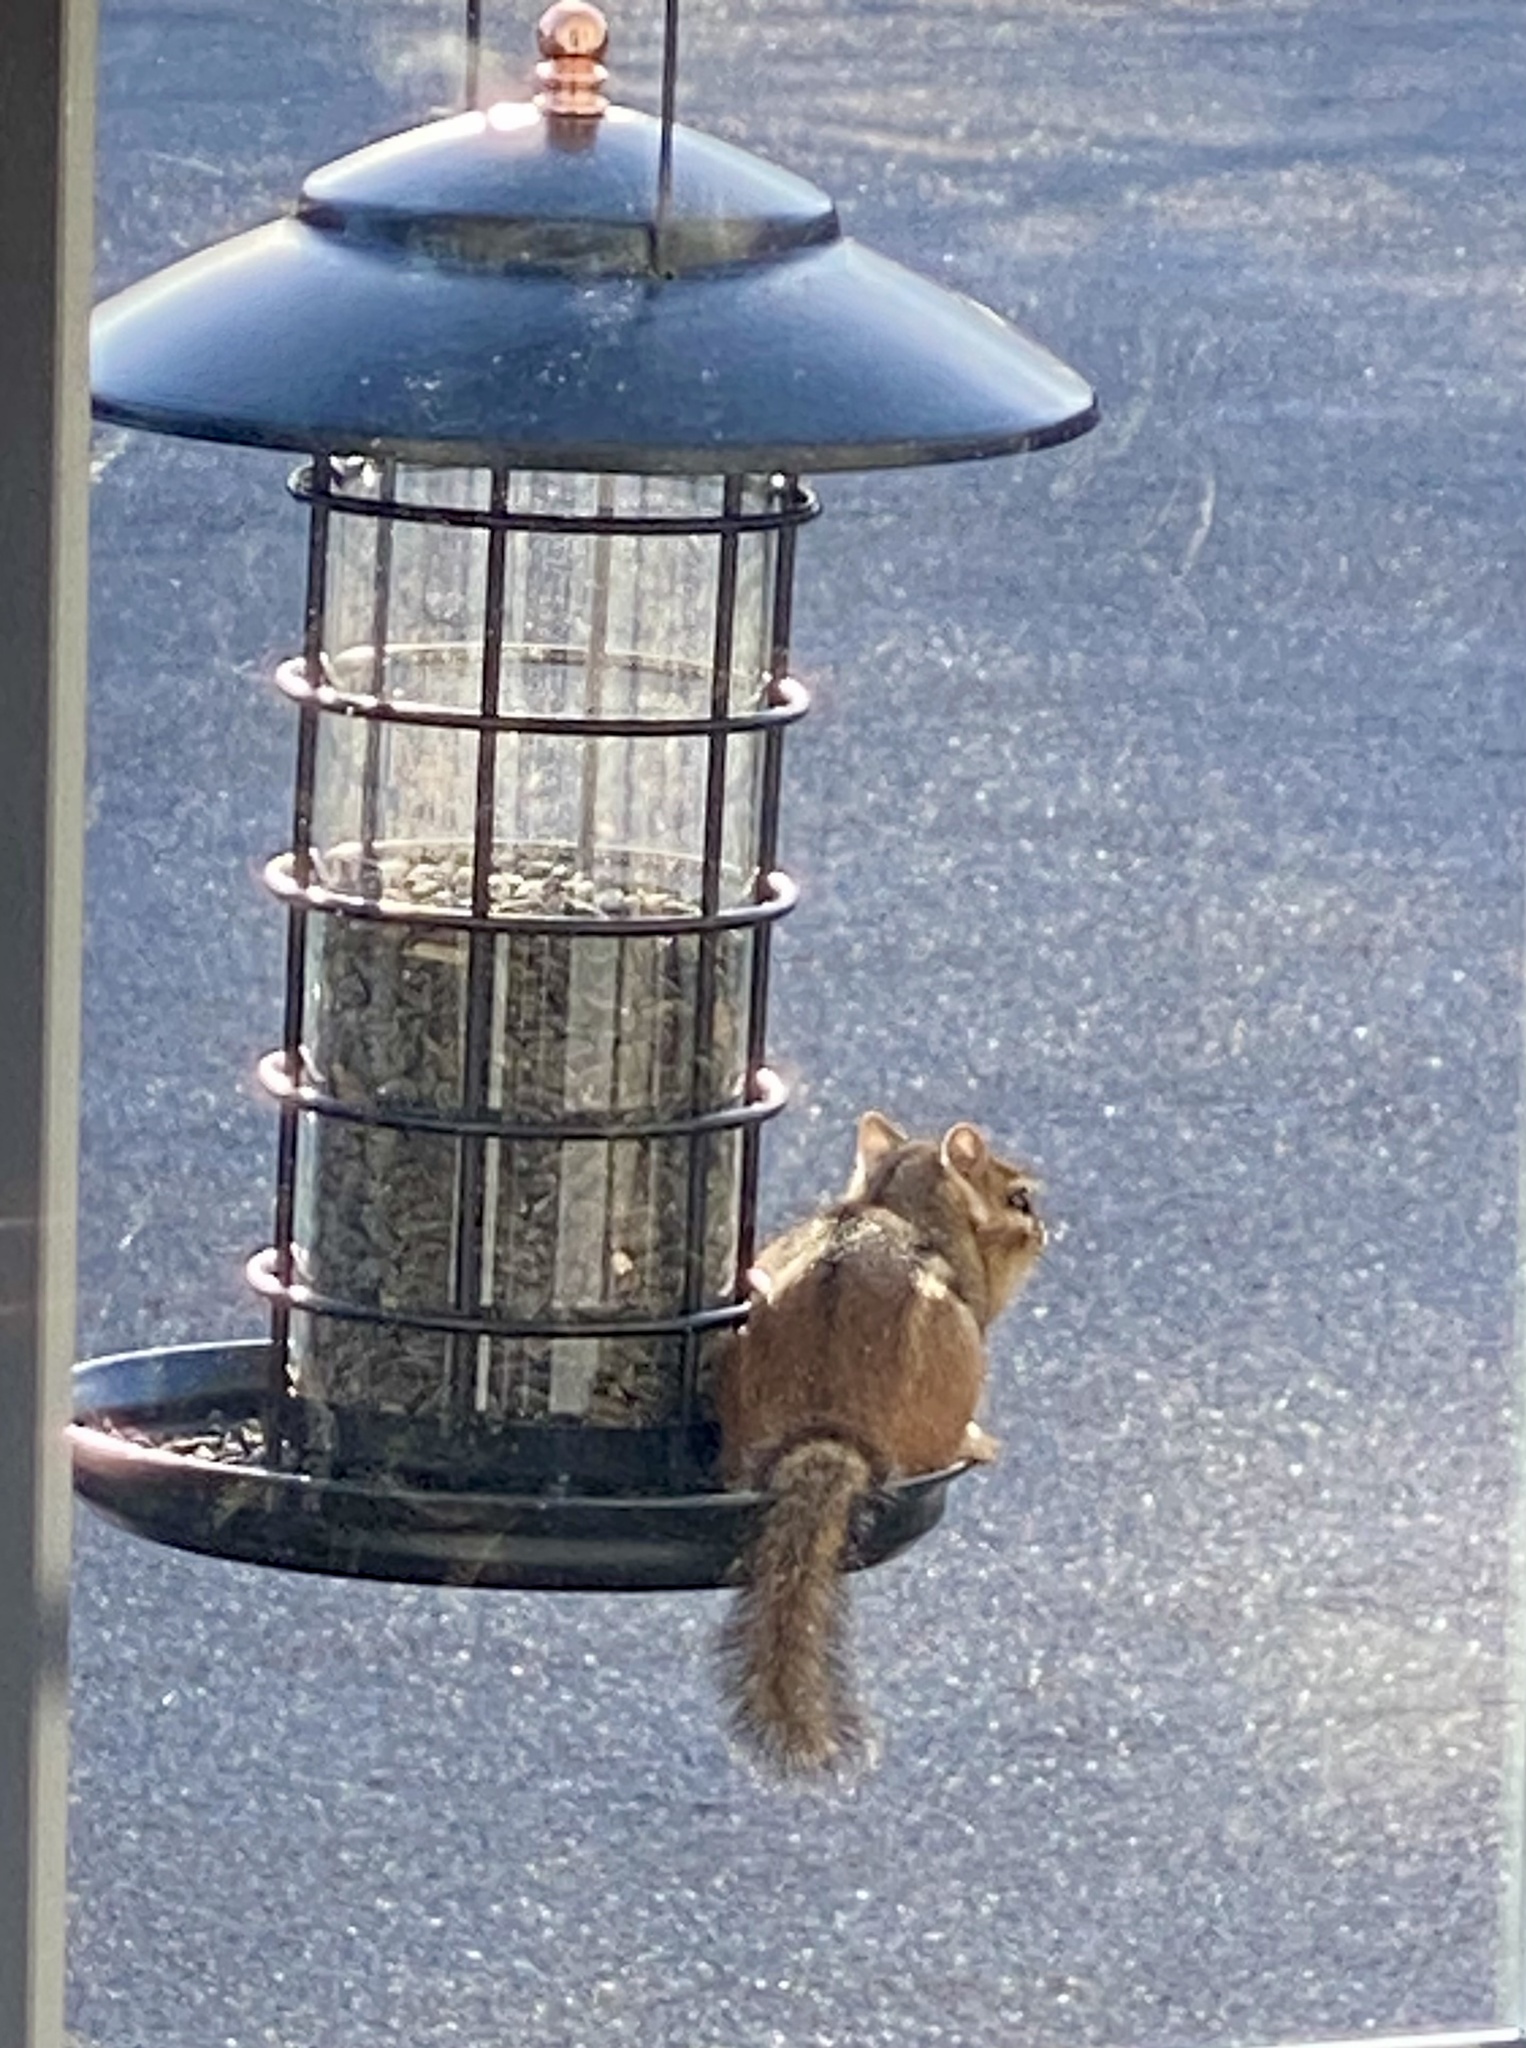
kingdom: Animalia
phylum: Chordata
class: Mammalia
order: Rodentia
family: Sciuridae
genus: Tamias
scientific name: Tamias striatus
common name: Eastern chipmunk
